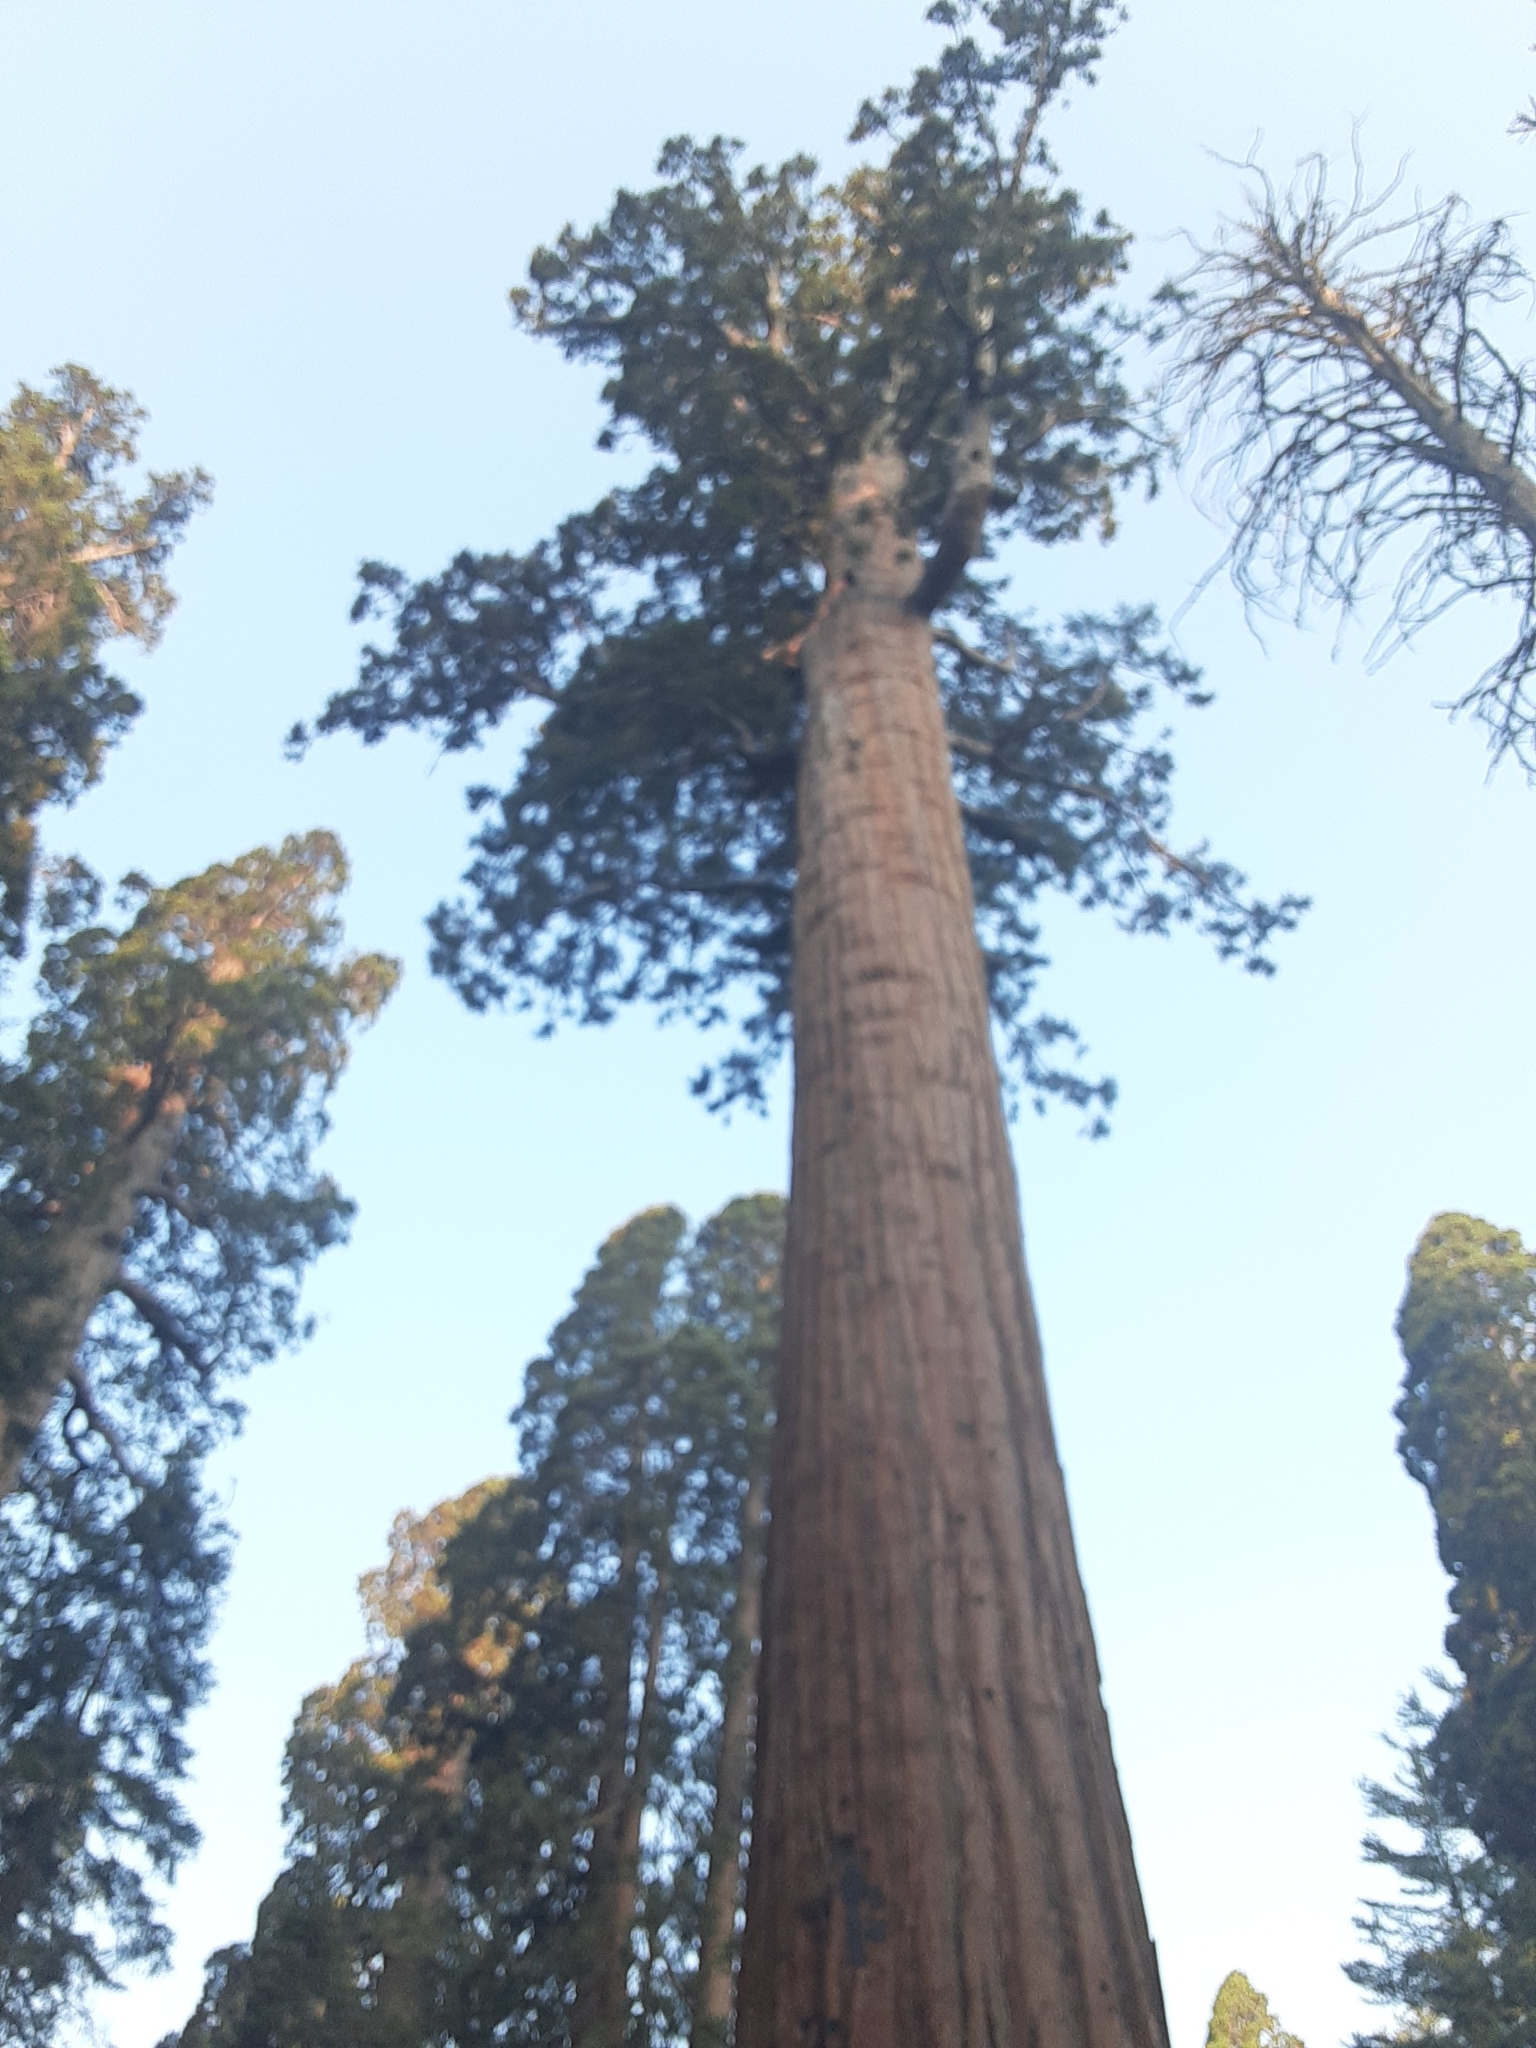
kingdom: Plantae
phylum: Tracheophyta
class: Pinopsida
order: Pinales
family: Cupressaceae
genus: Sequoiadendron
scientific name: Sequoiadendron giganteum
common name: Wellingtonia
